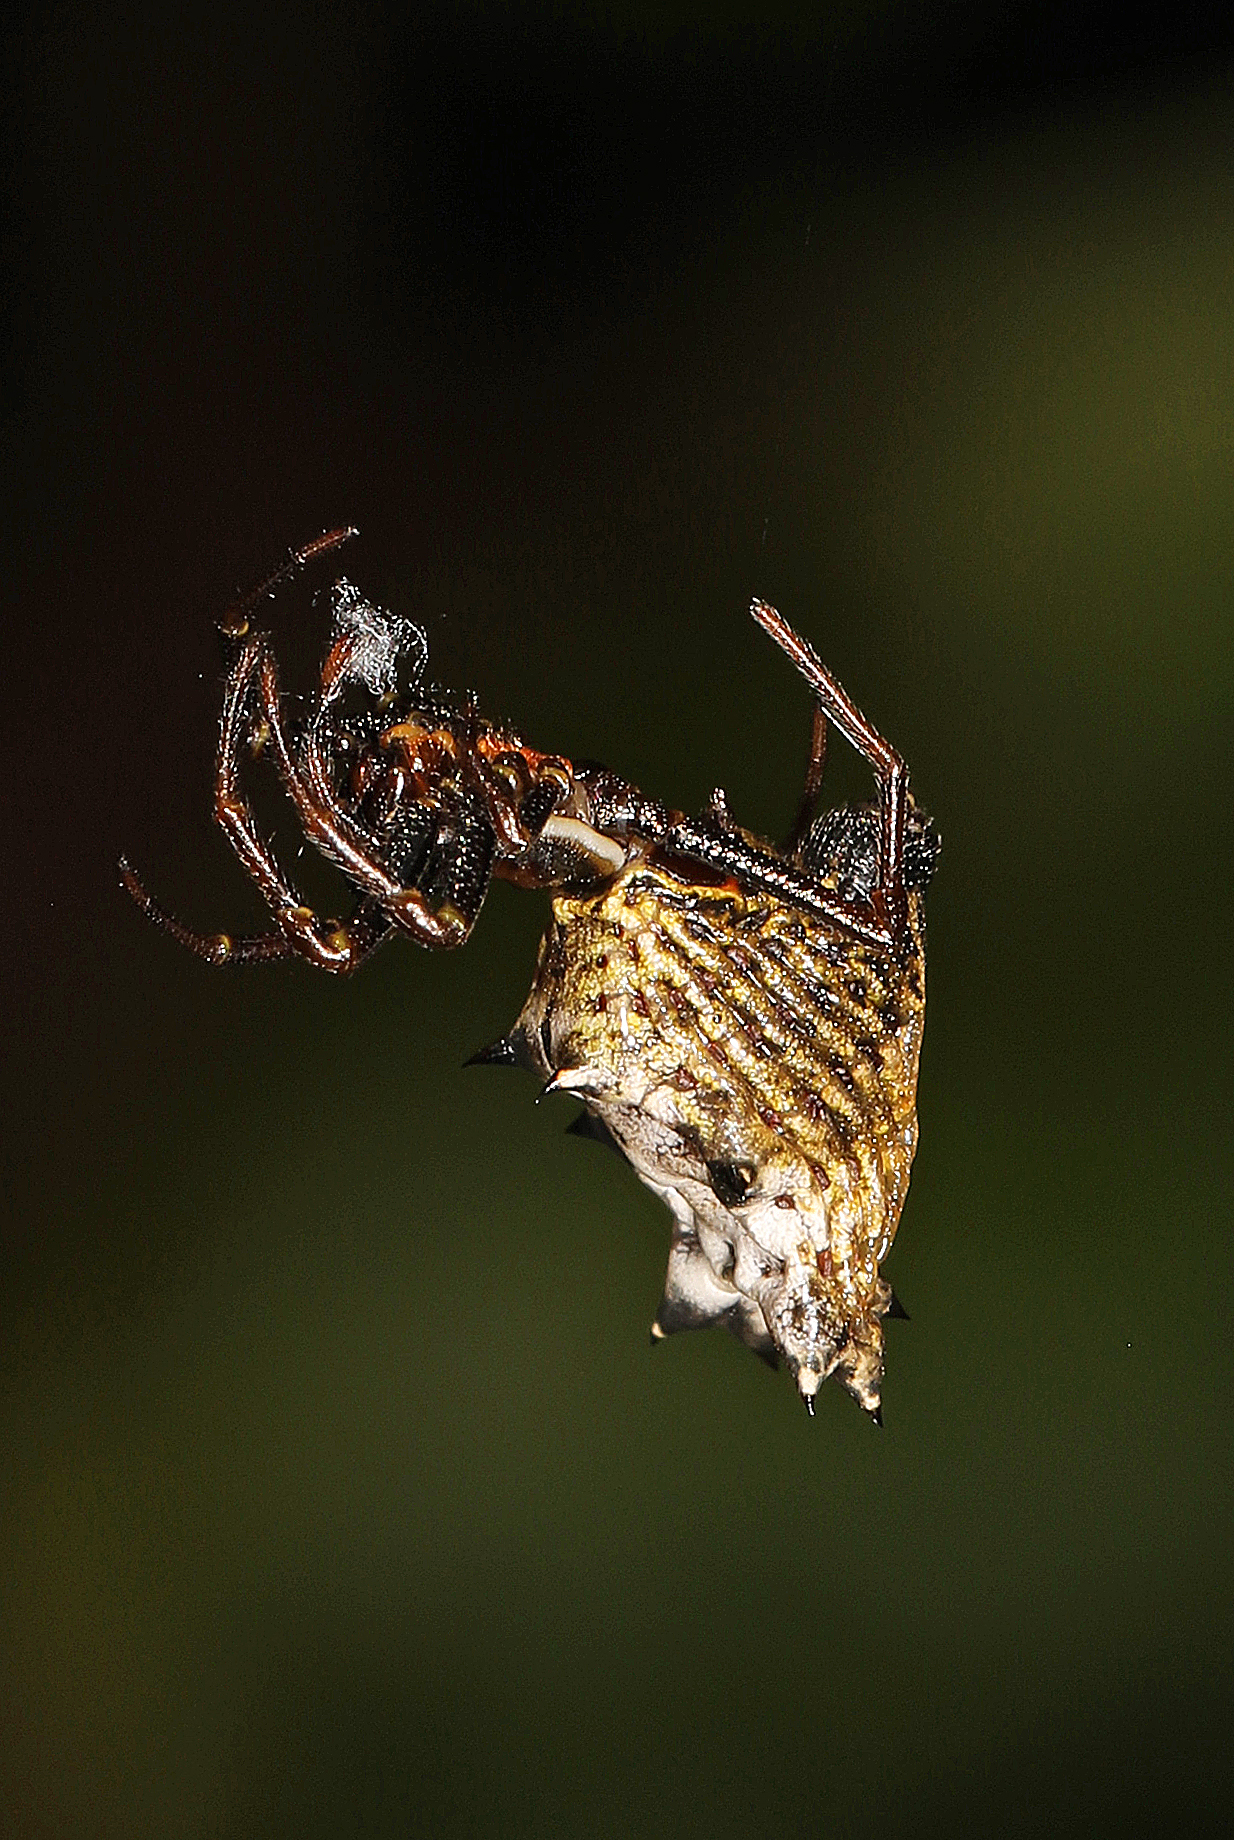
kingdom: Animalia
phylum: Arthropoda
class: Arachnida
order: Araneae
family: Araneidae
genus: Micrathena
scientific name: Micrathena gracilis
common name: Orb weavers
